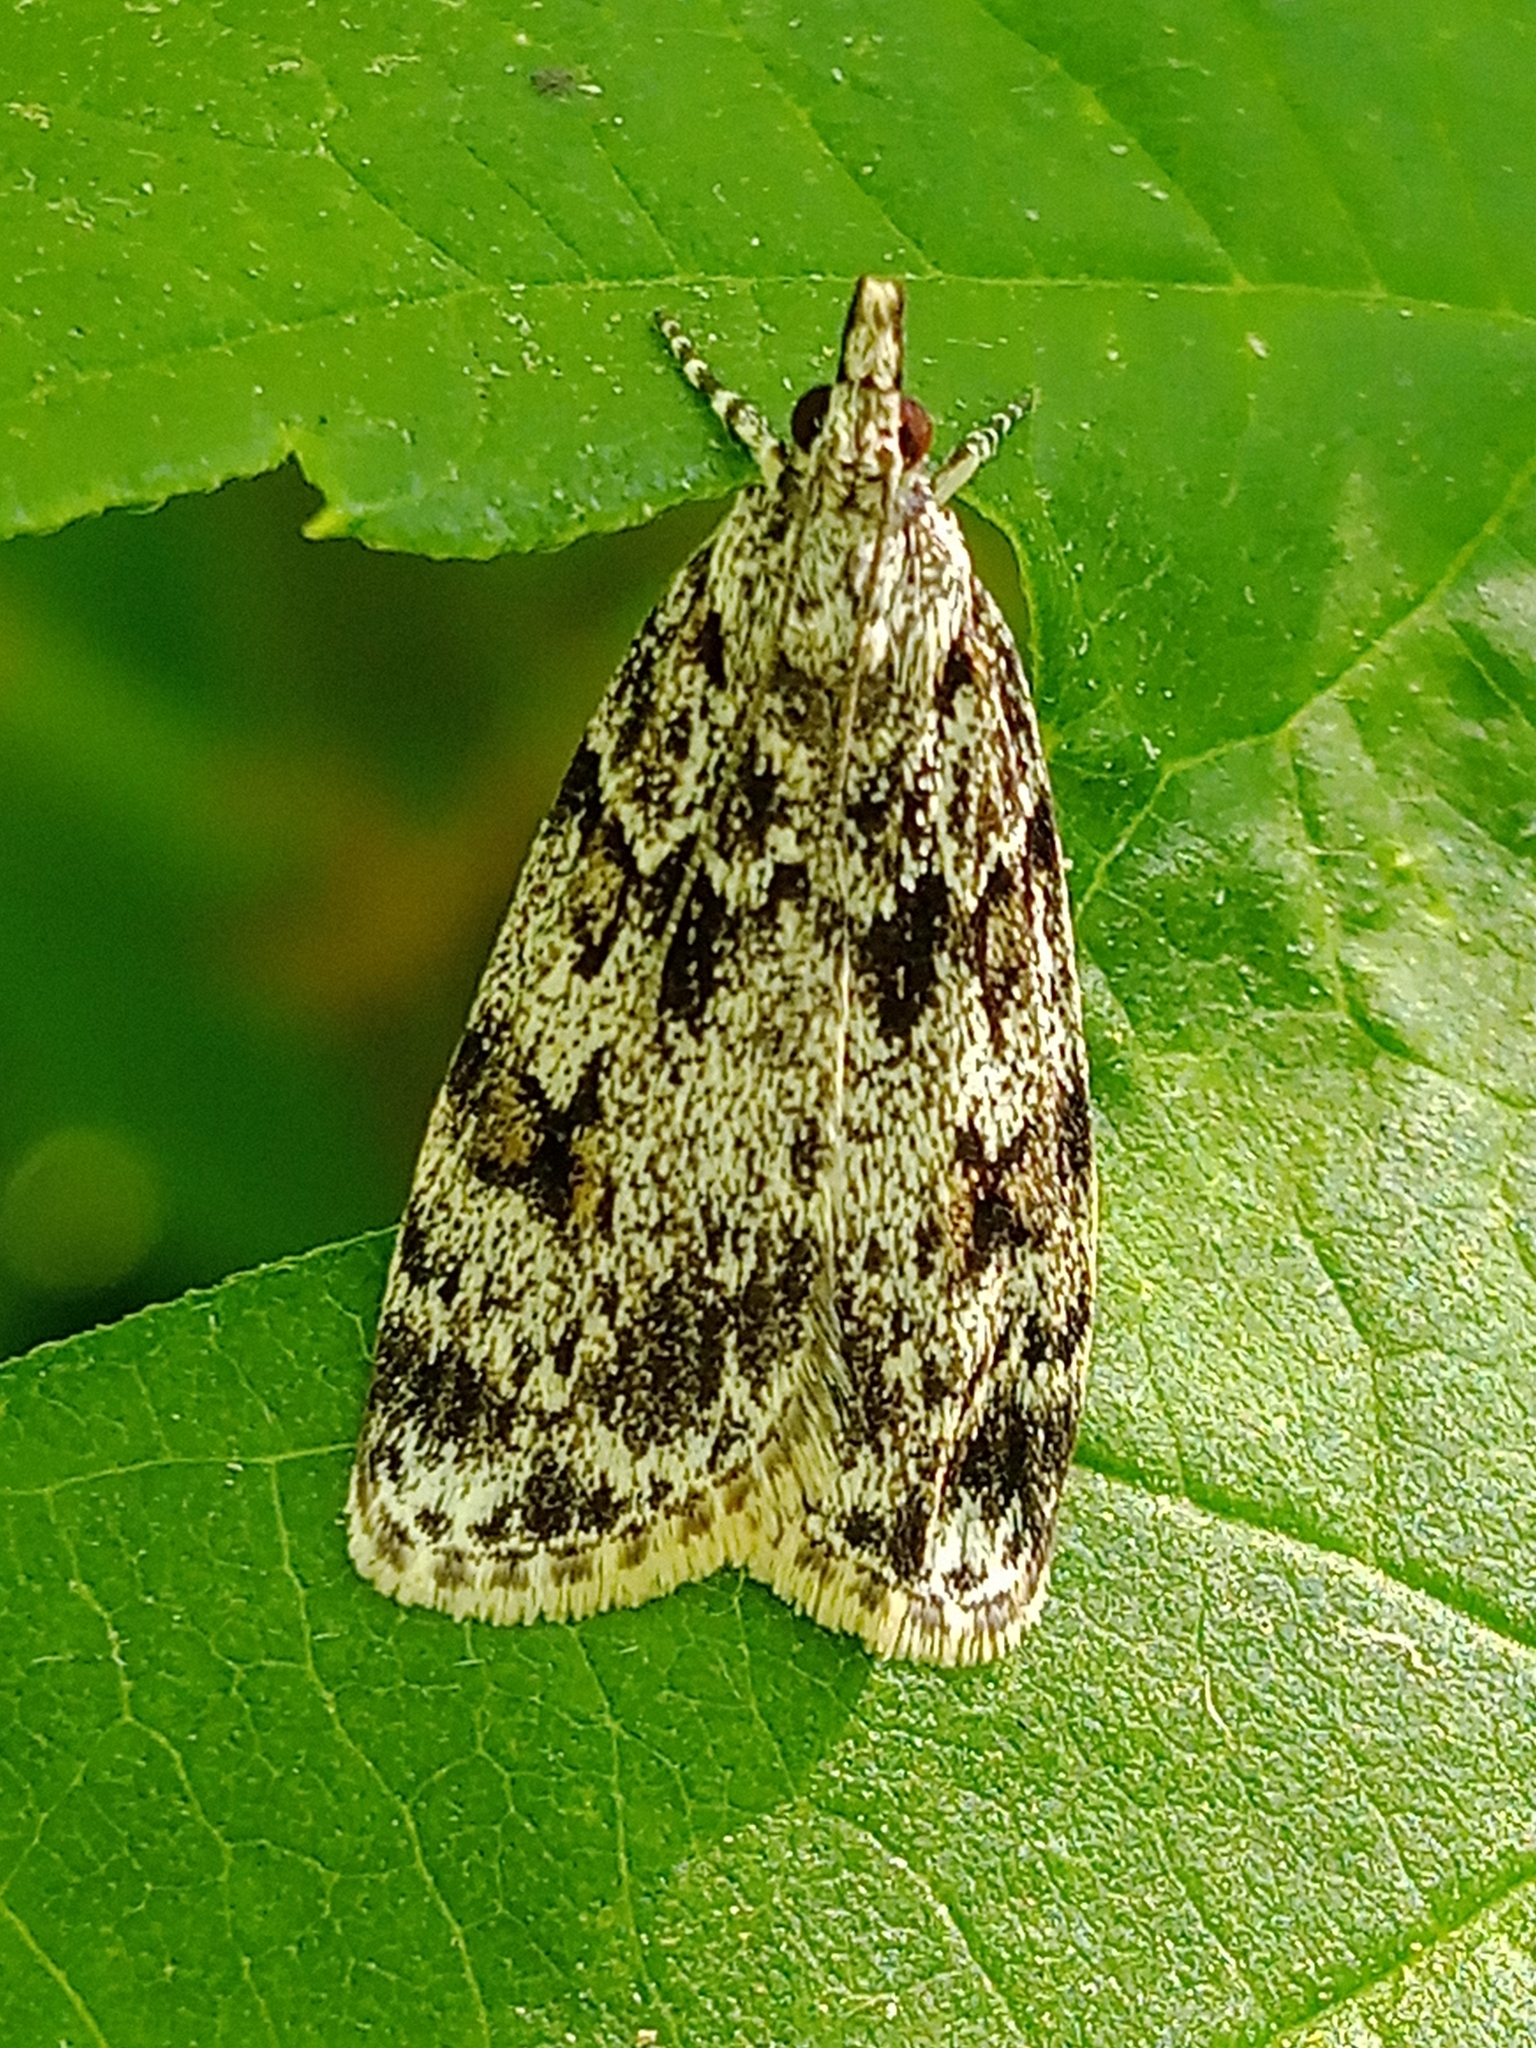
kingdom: Animalia
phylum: Arthropoda
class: Insecta
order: Lepidoptera
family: Crambidae
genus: Scoparia
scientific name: Scoparia basistrigalis
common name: Base-lined grey
